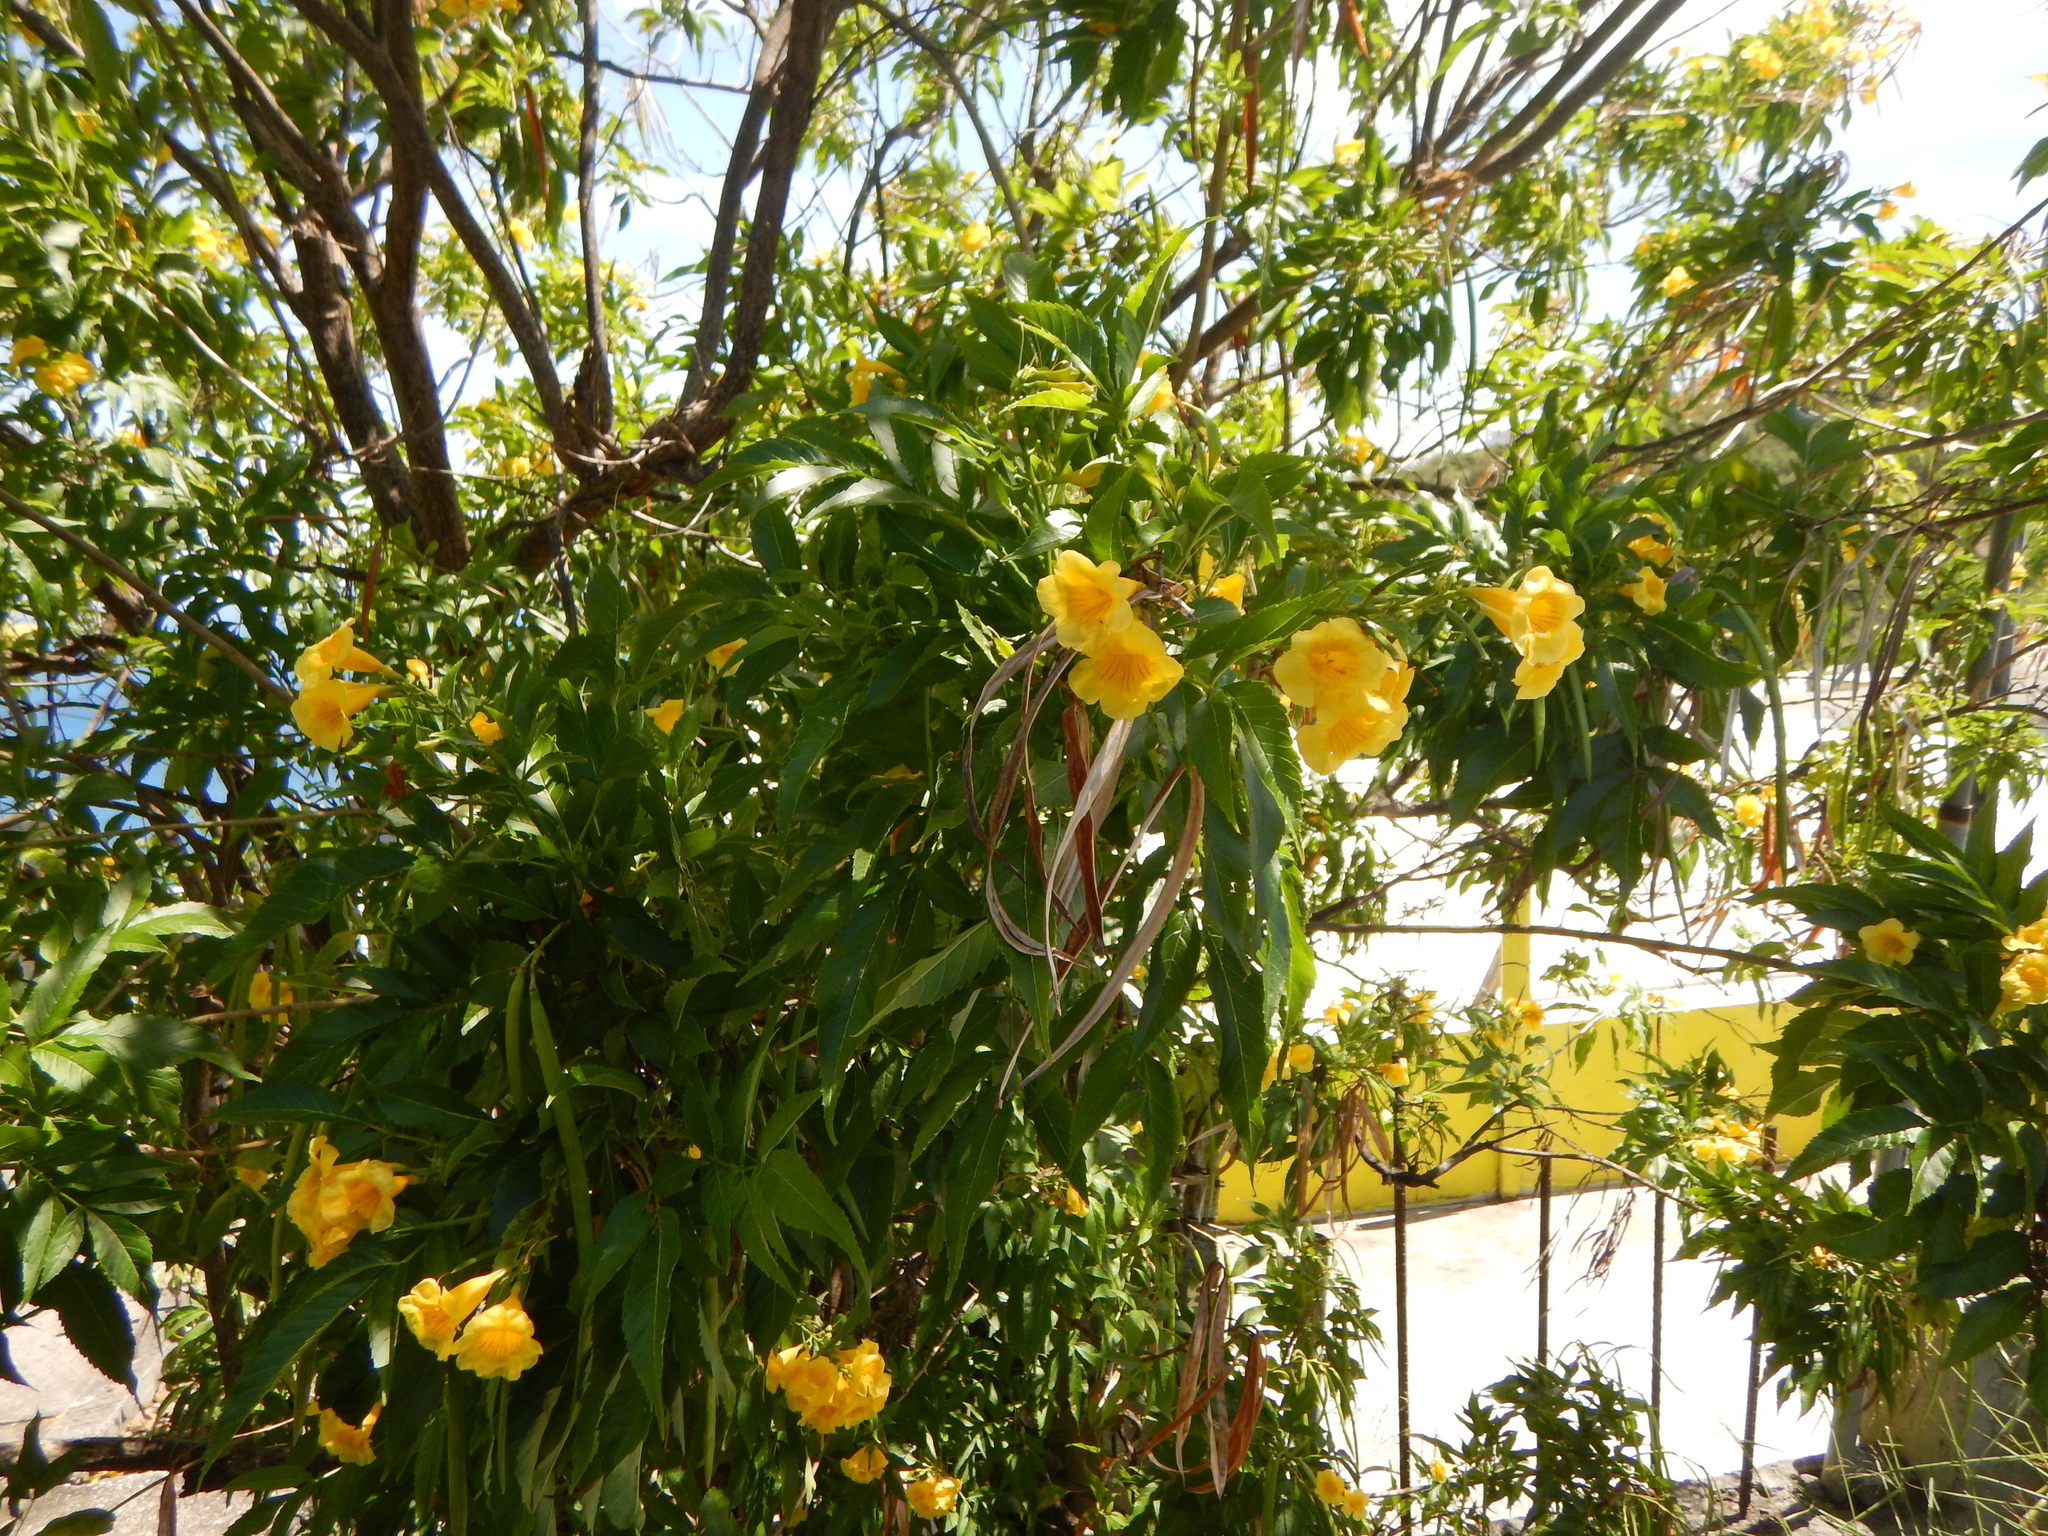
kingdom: Plantae
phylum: Tracheophyta
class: Magnoliopsida
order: Lamiales
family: Bignoniaceae
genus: Tecoma
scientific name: Tecoma stans
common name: Yellow trumpetbush
